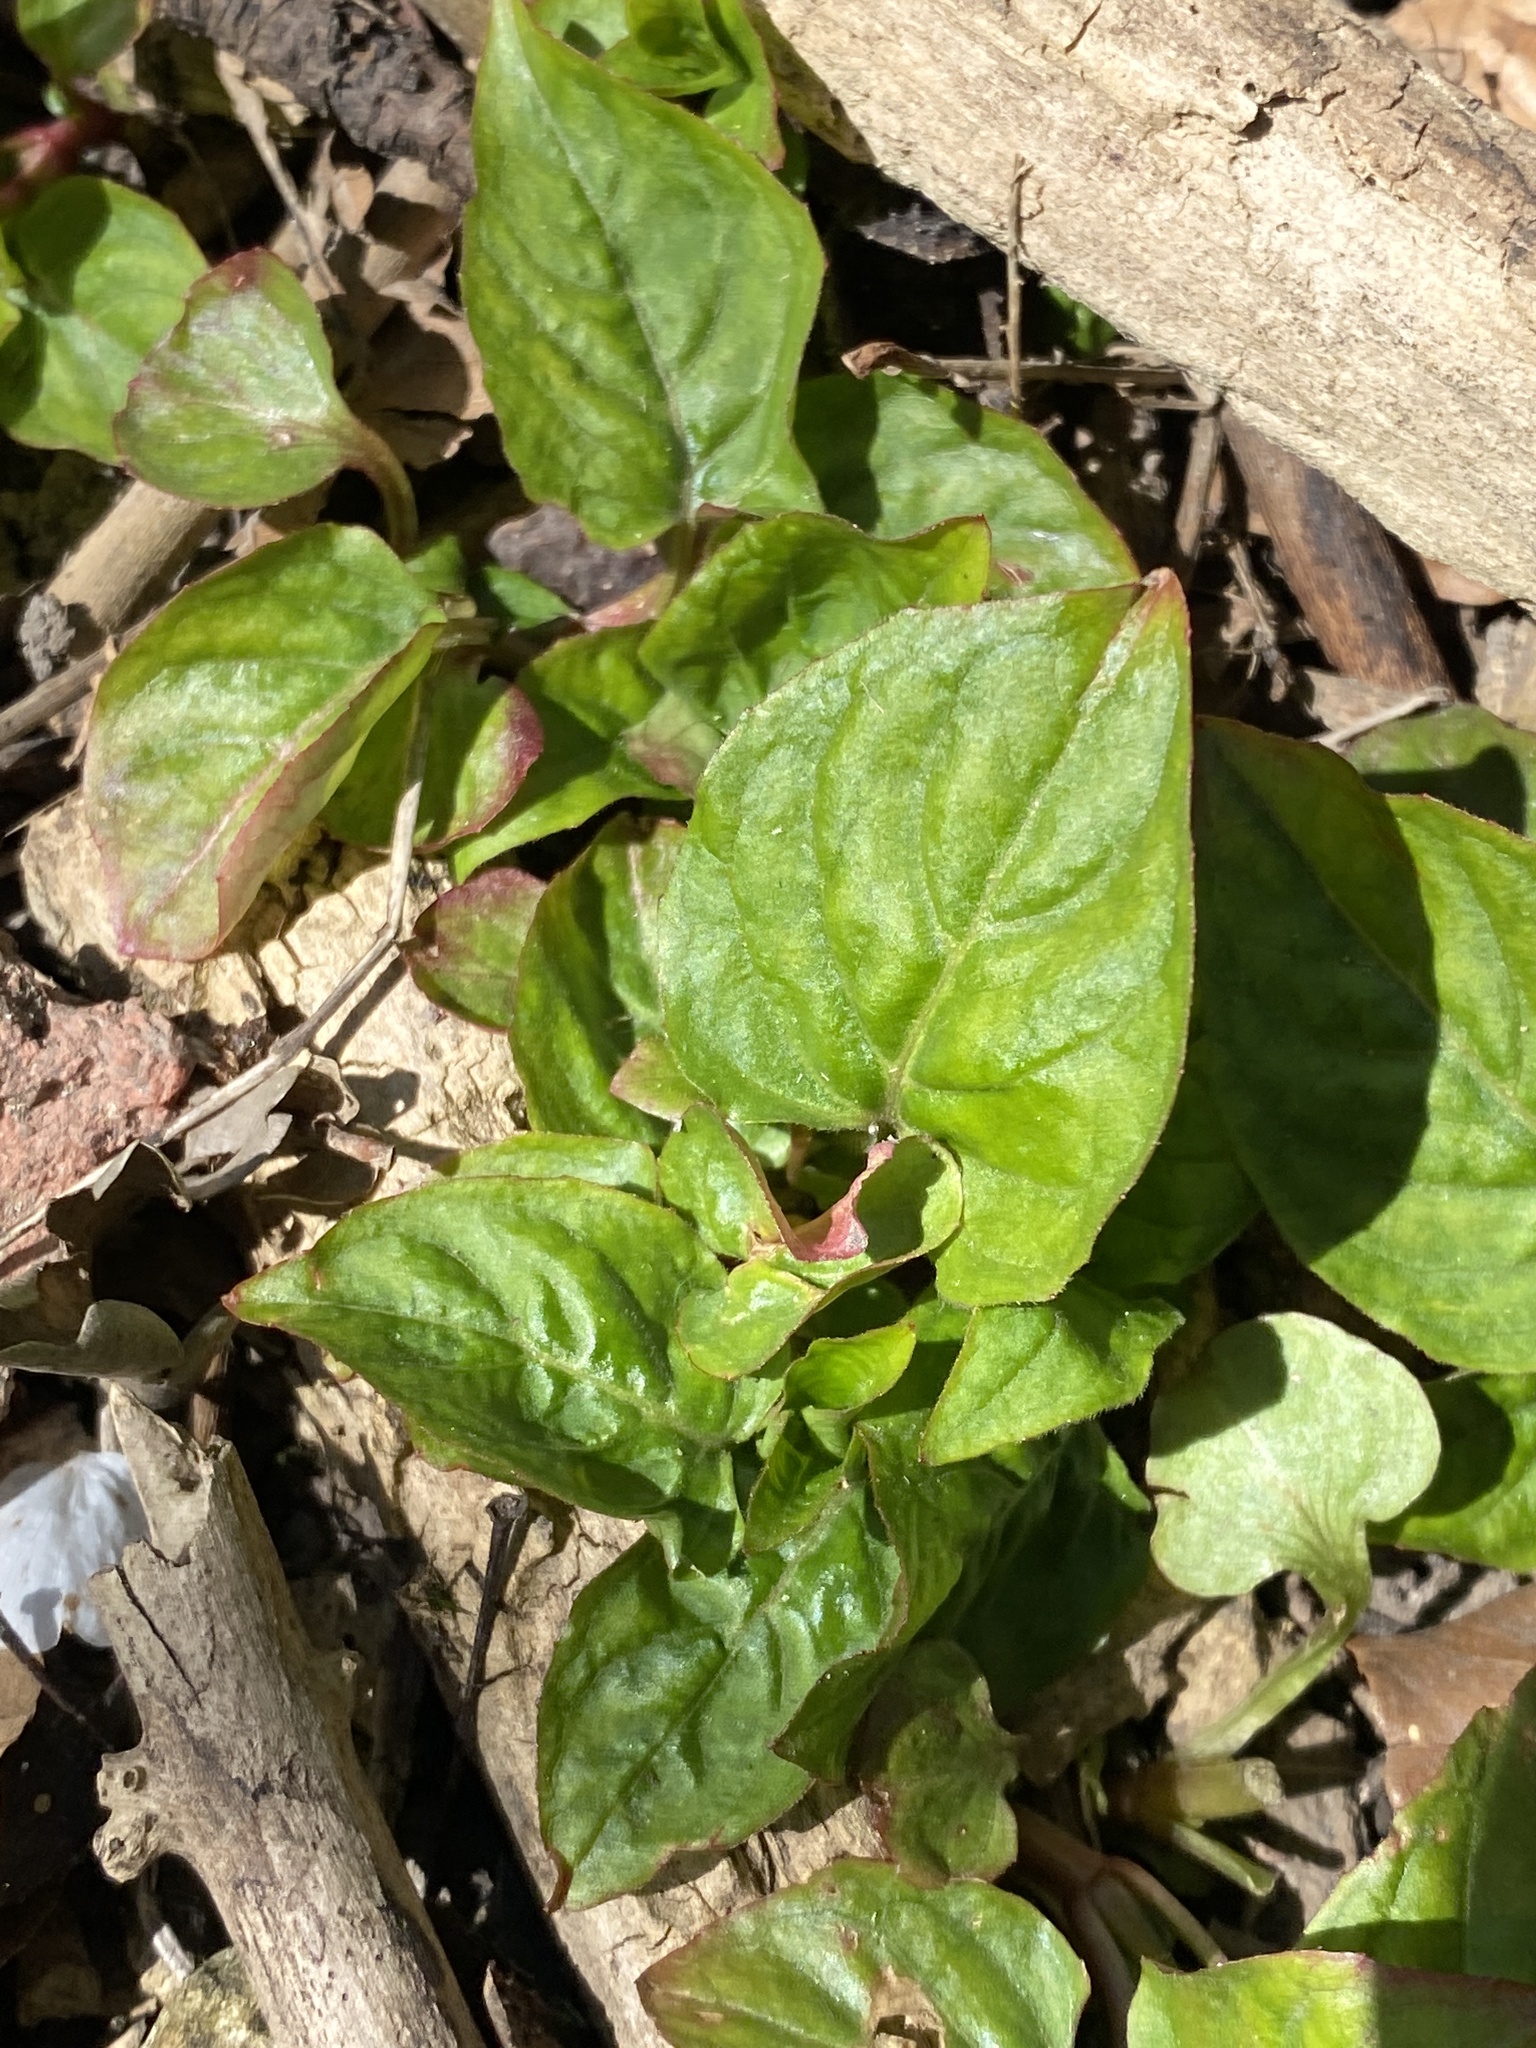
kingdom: Plantae
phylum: Tracheophyta
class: Magnoliopsida
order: Myrtales
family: Onagraceae
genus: Circaea
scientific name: Circaea lutetiana
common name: Enchanter's-nightshade
